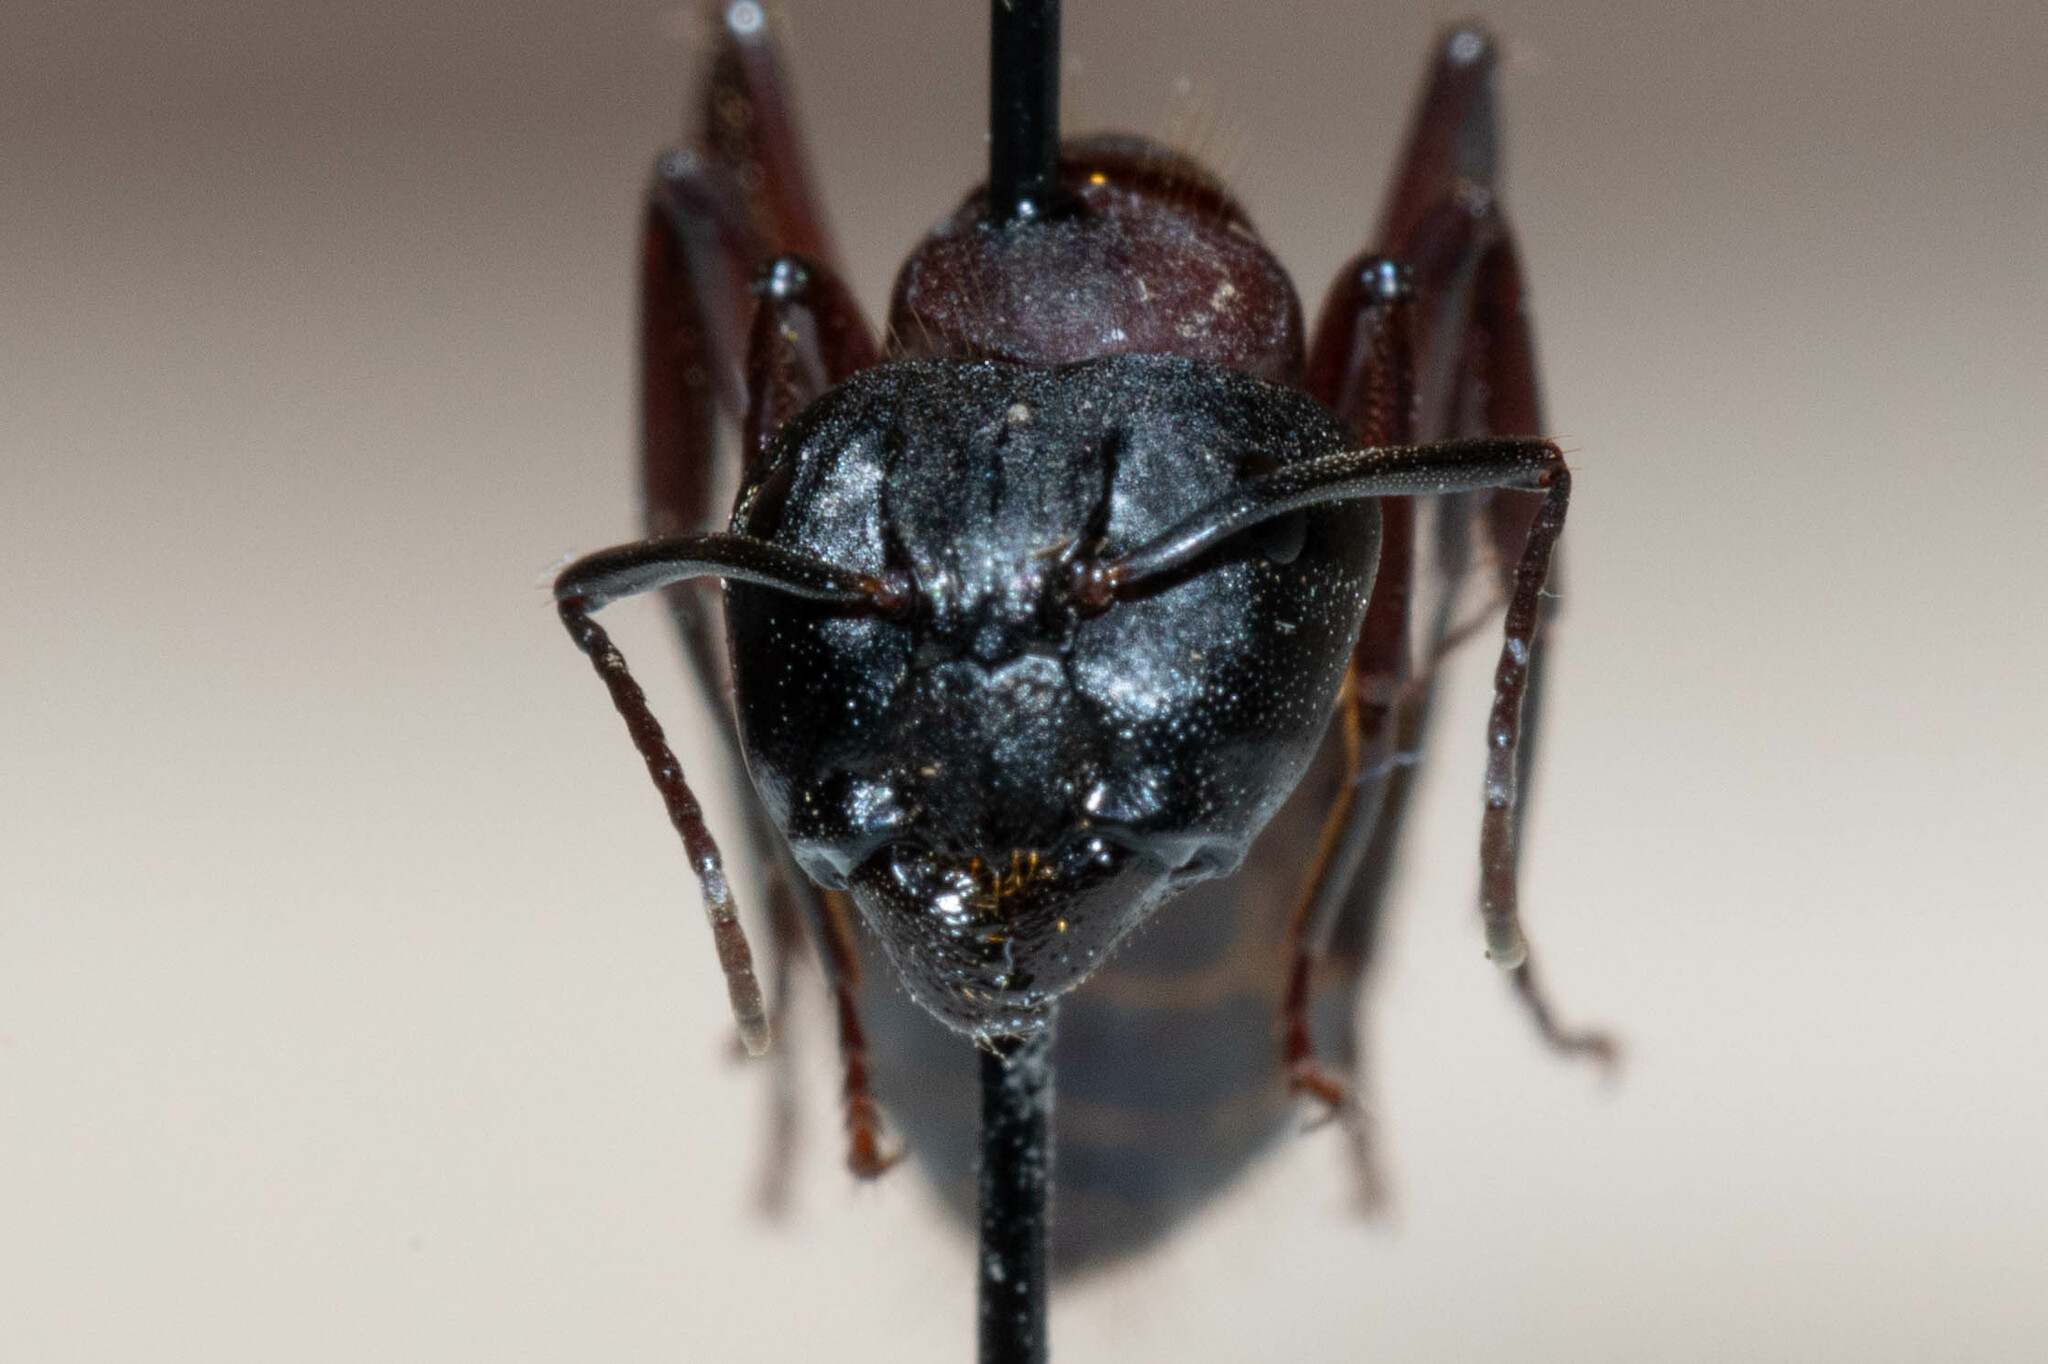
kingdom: Animalia
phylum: Arthropoda
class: Insecta
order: Hymenoptera
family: Formicidae
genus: Camponotus
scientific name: Camponotus vicinus
